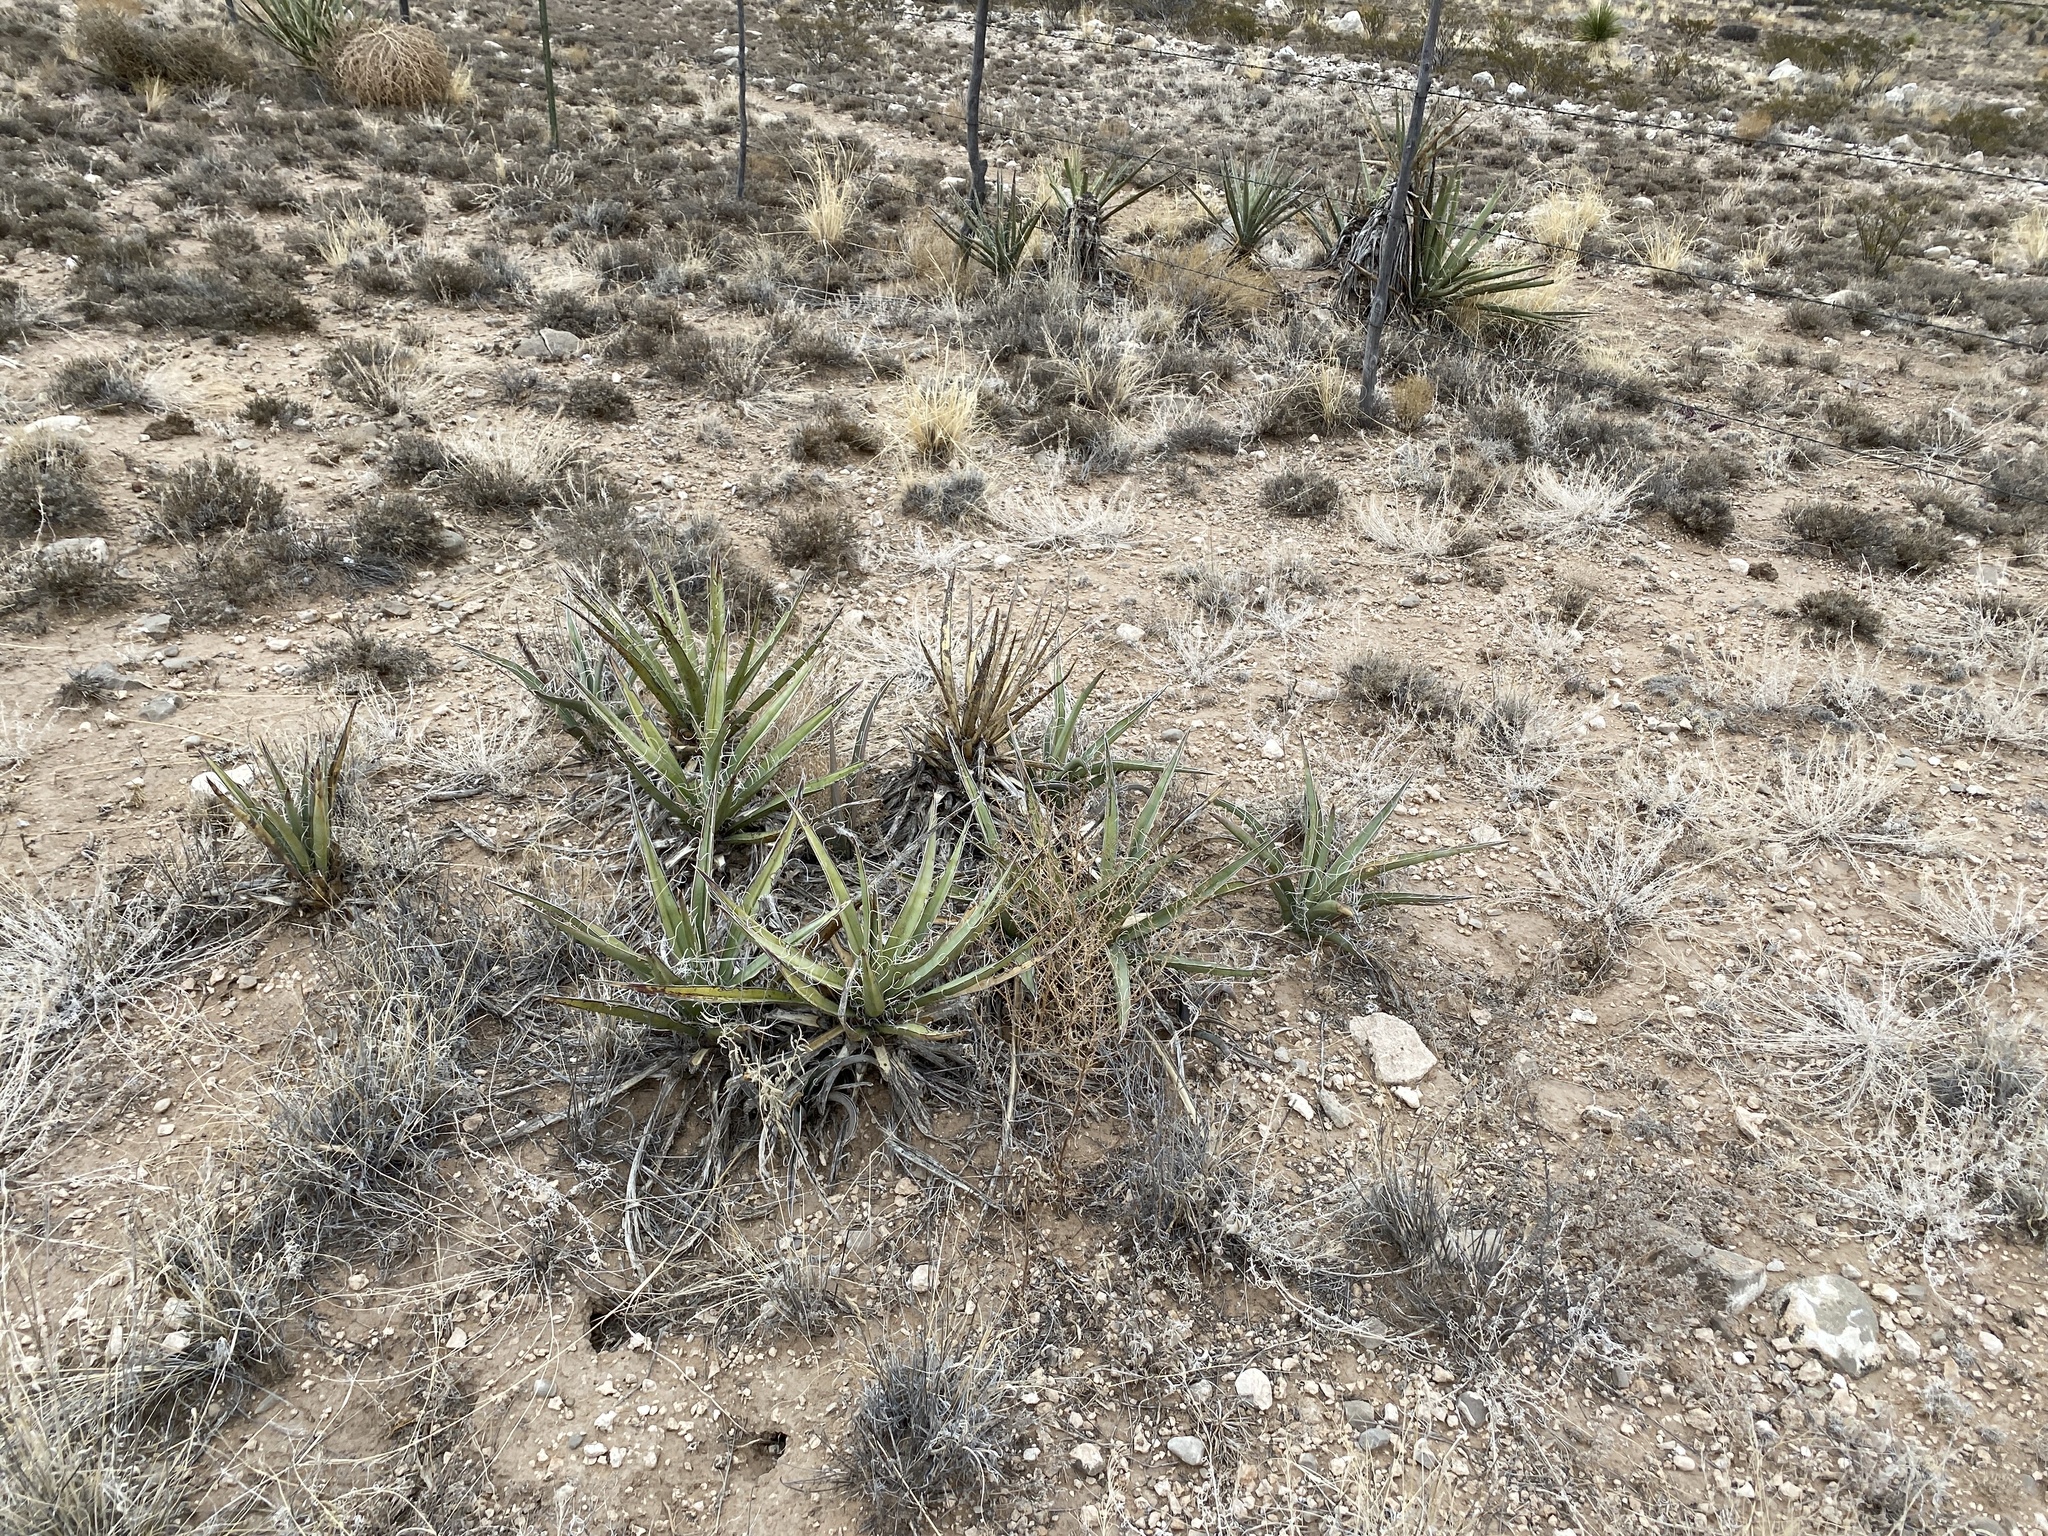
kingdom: Plantae
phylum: Tracheophyta
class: Liliopsida
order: Asparagales
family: Asparagaceae
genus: Yucca
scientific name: Yucca baccata
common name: Banana yucca
